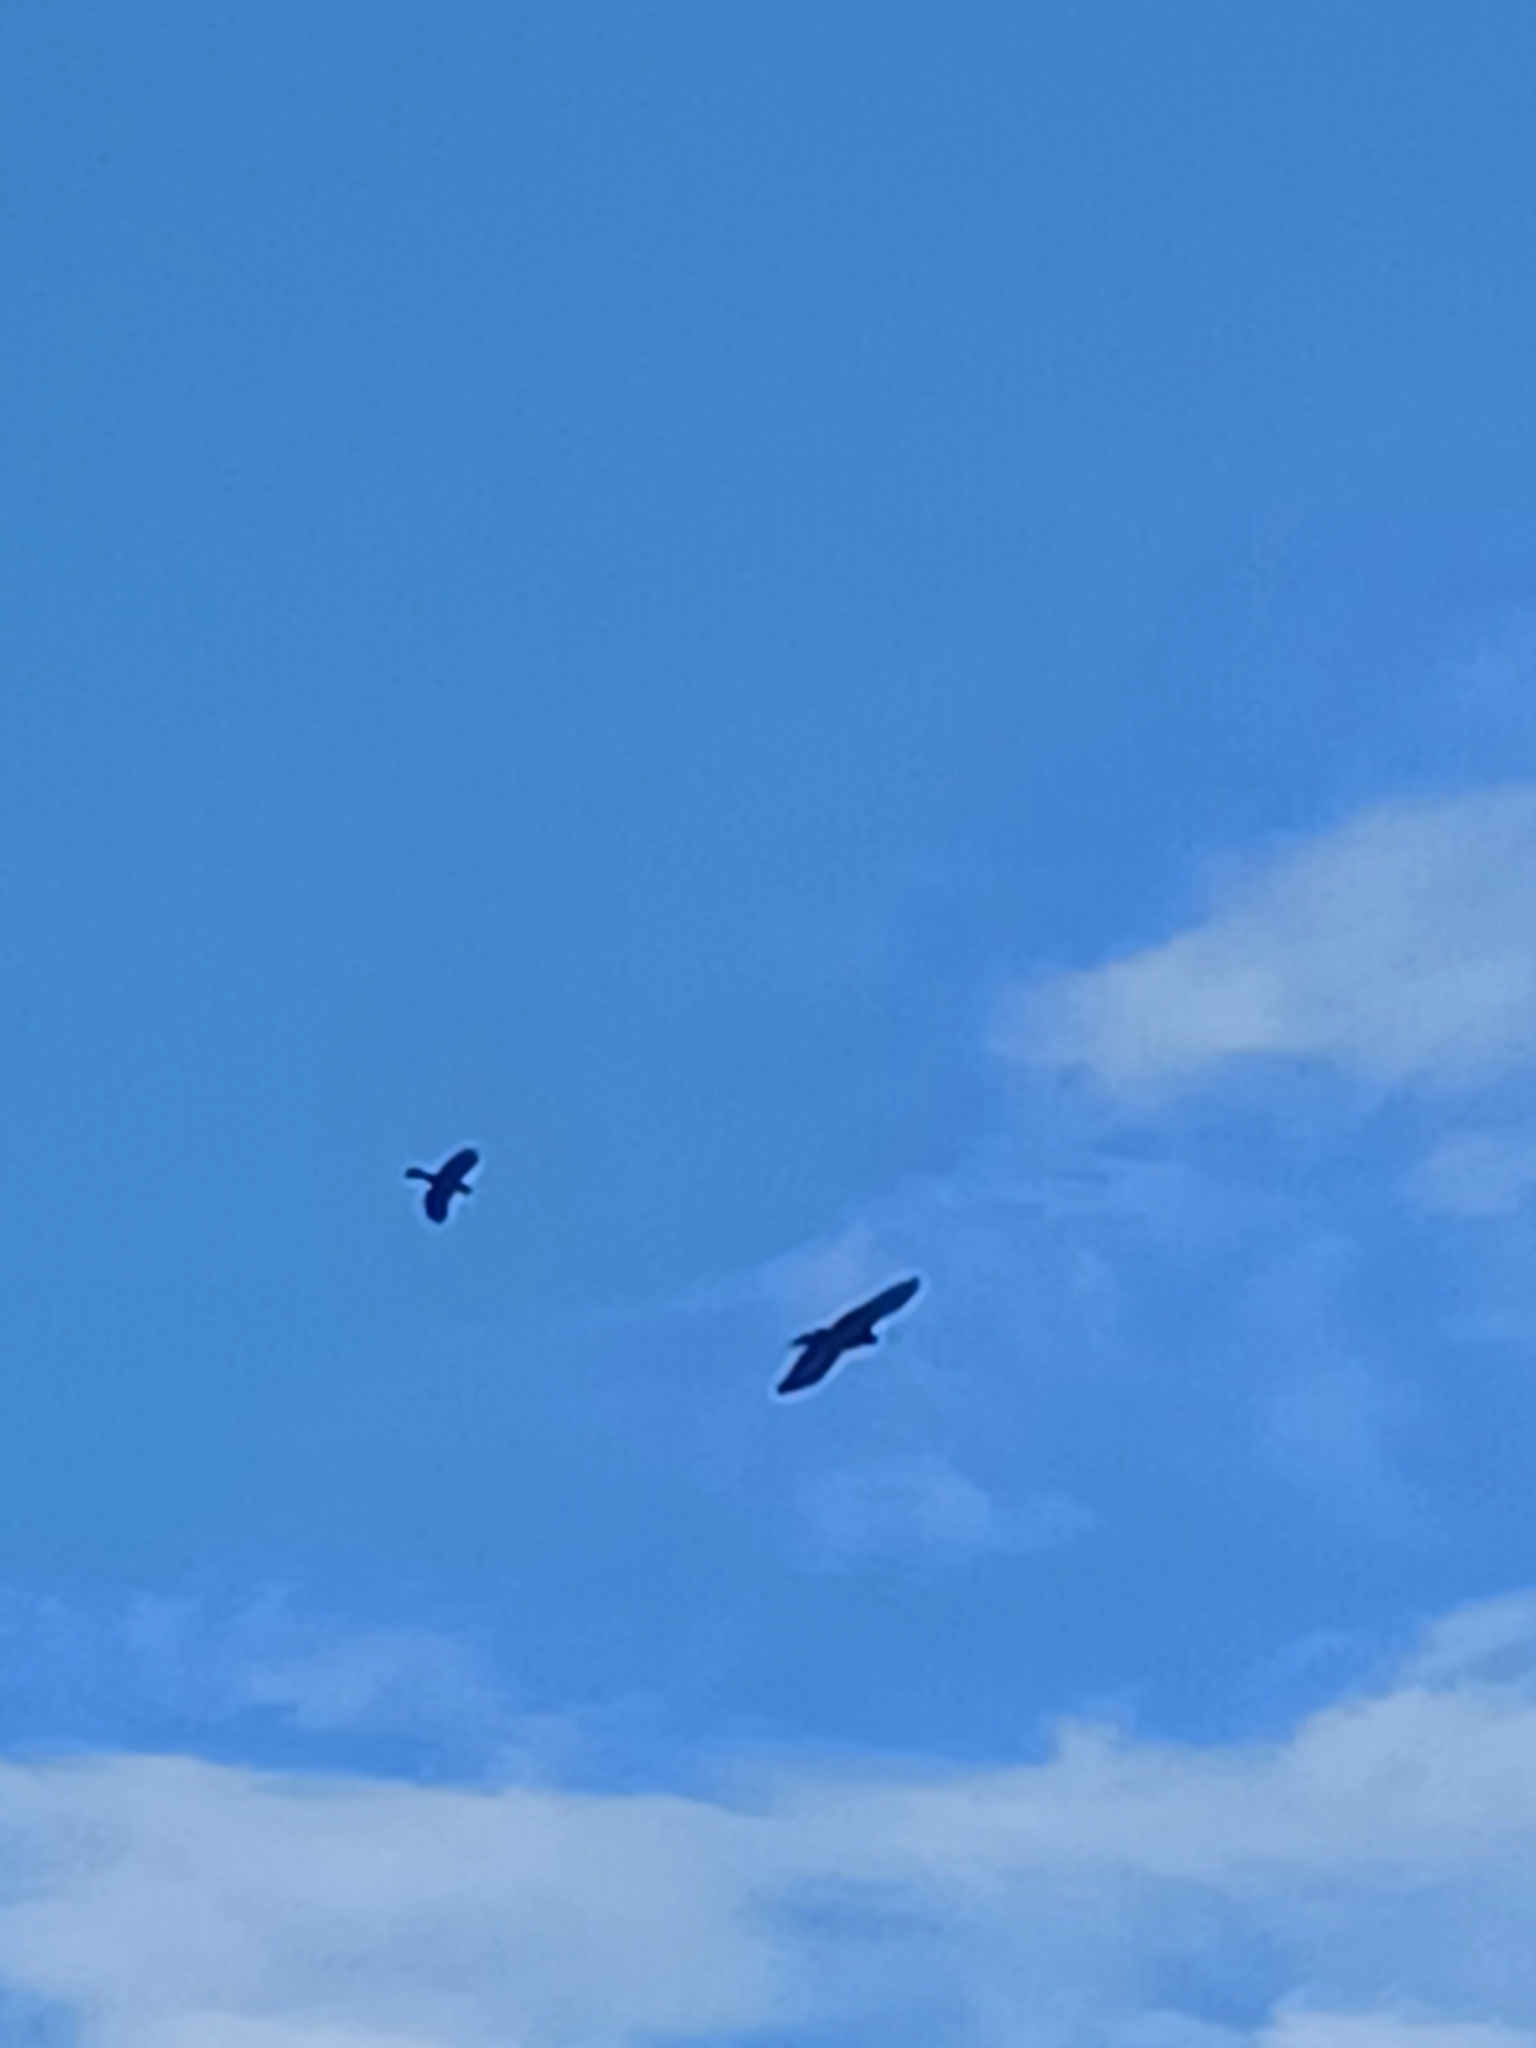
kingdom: Animalia
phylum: Chordata
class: Aves
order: Passeriformes
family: Corvidae
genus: Corvus
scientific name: Corvus brachyrhynchos
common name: American crow
